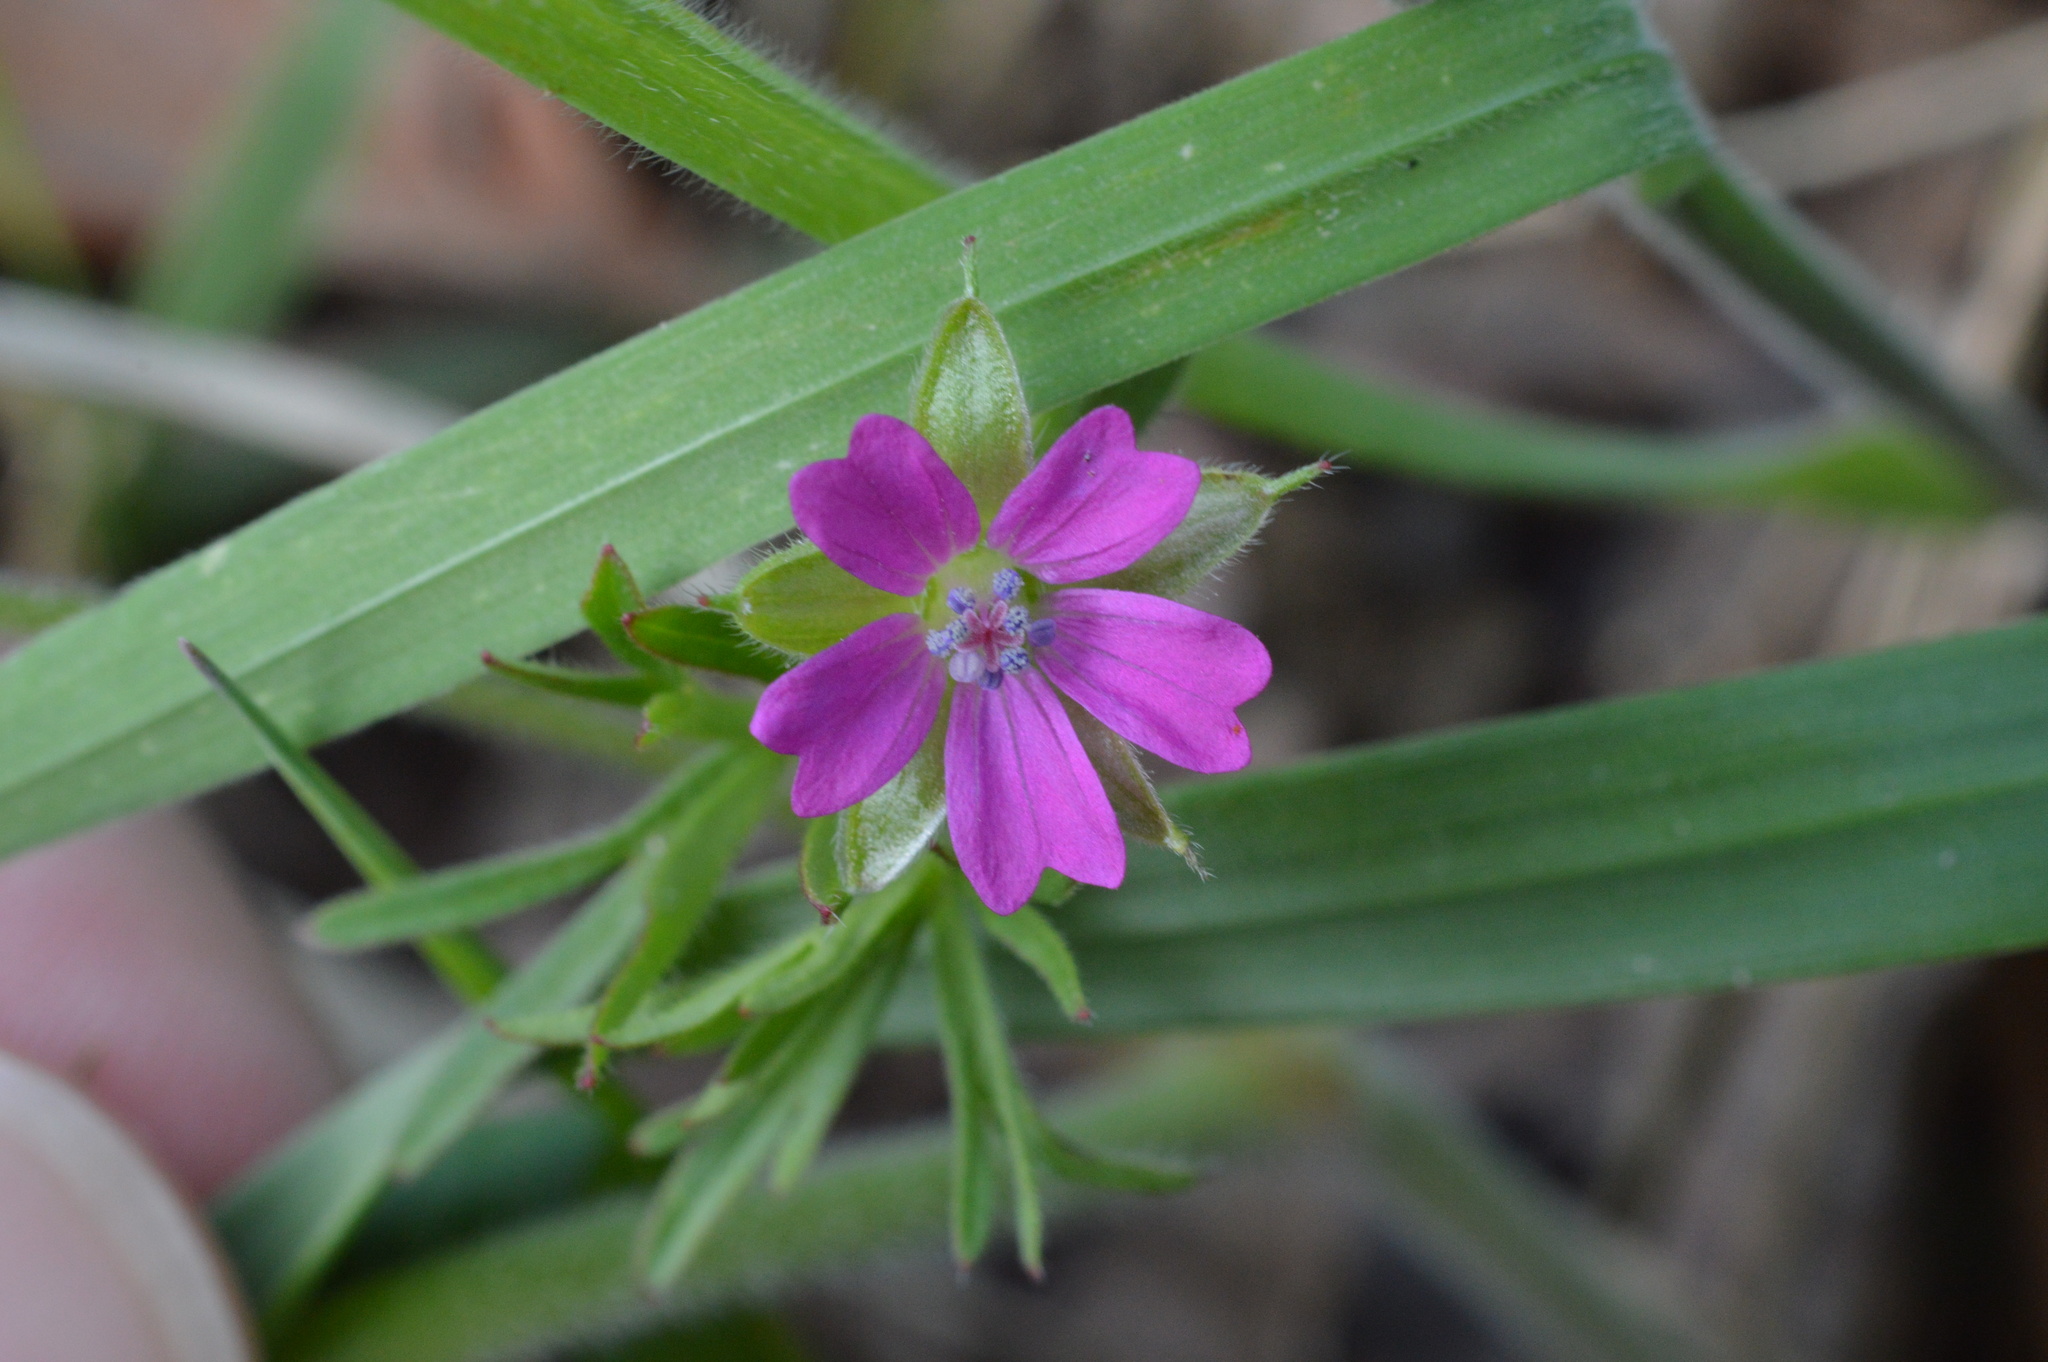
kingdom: Plantae
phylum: Tracheophyta
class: Magnoliopsida
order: Geraniales
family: Geraniaceae
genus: Geranium
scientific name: Geranium dissectum
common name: Cut-leaved crane's-bill
